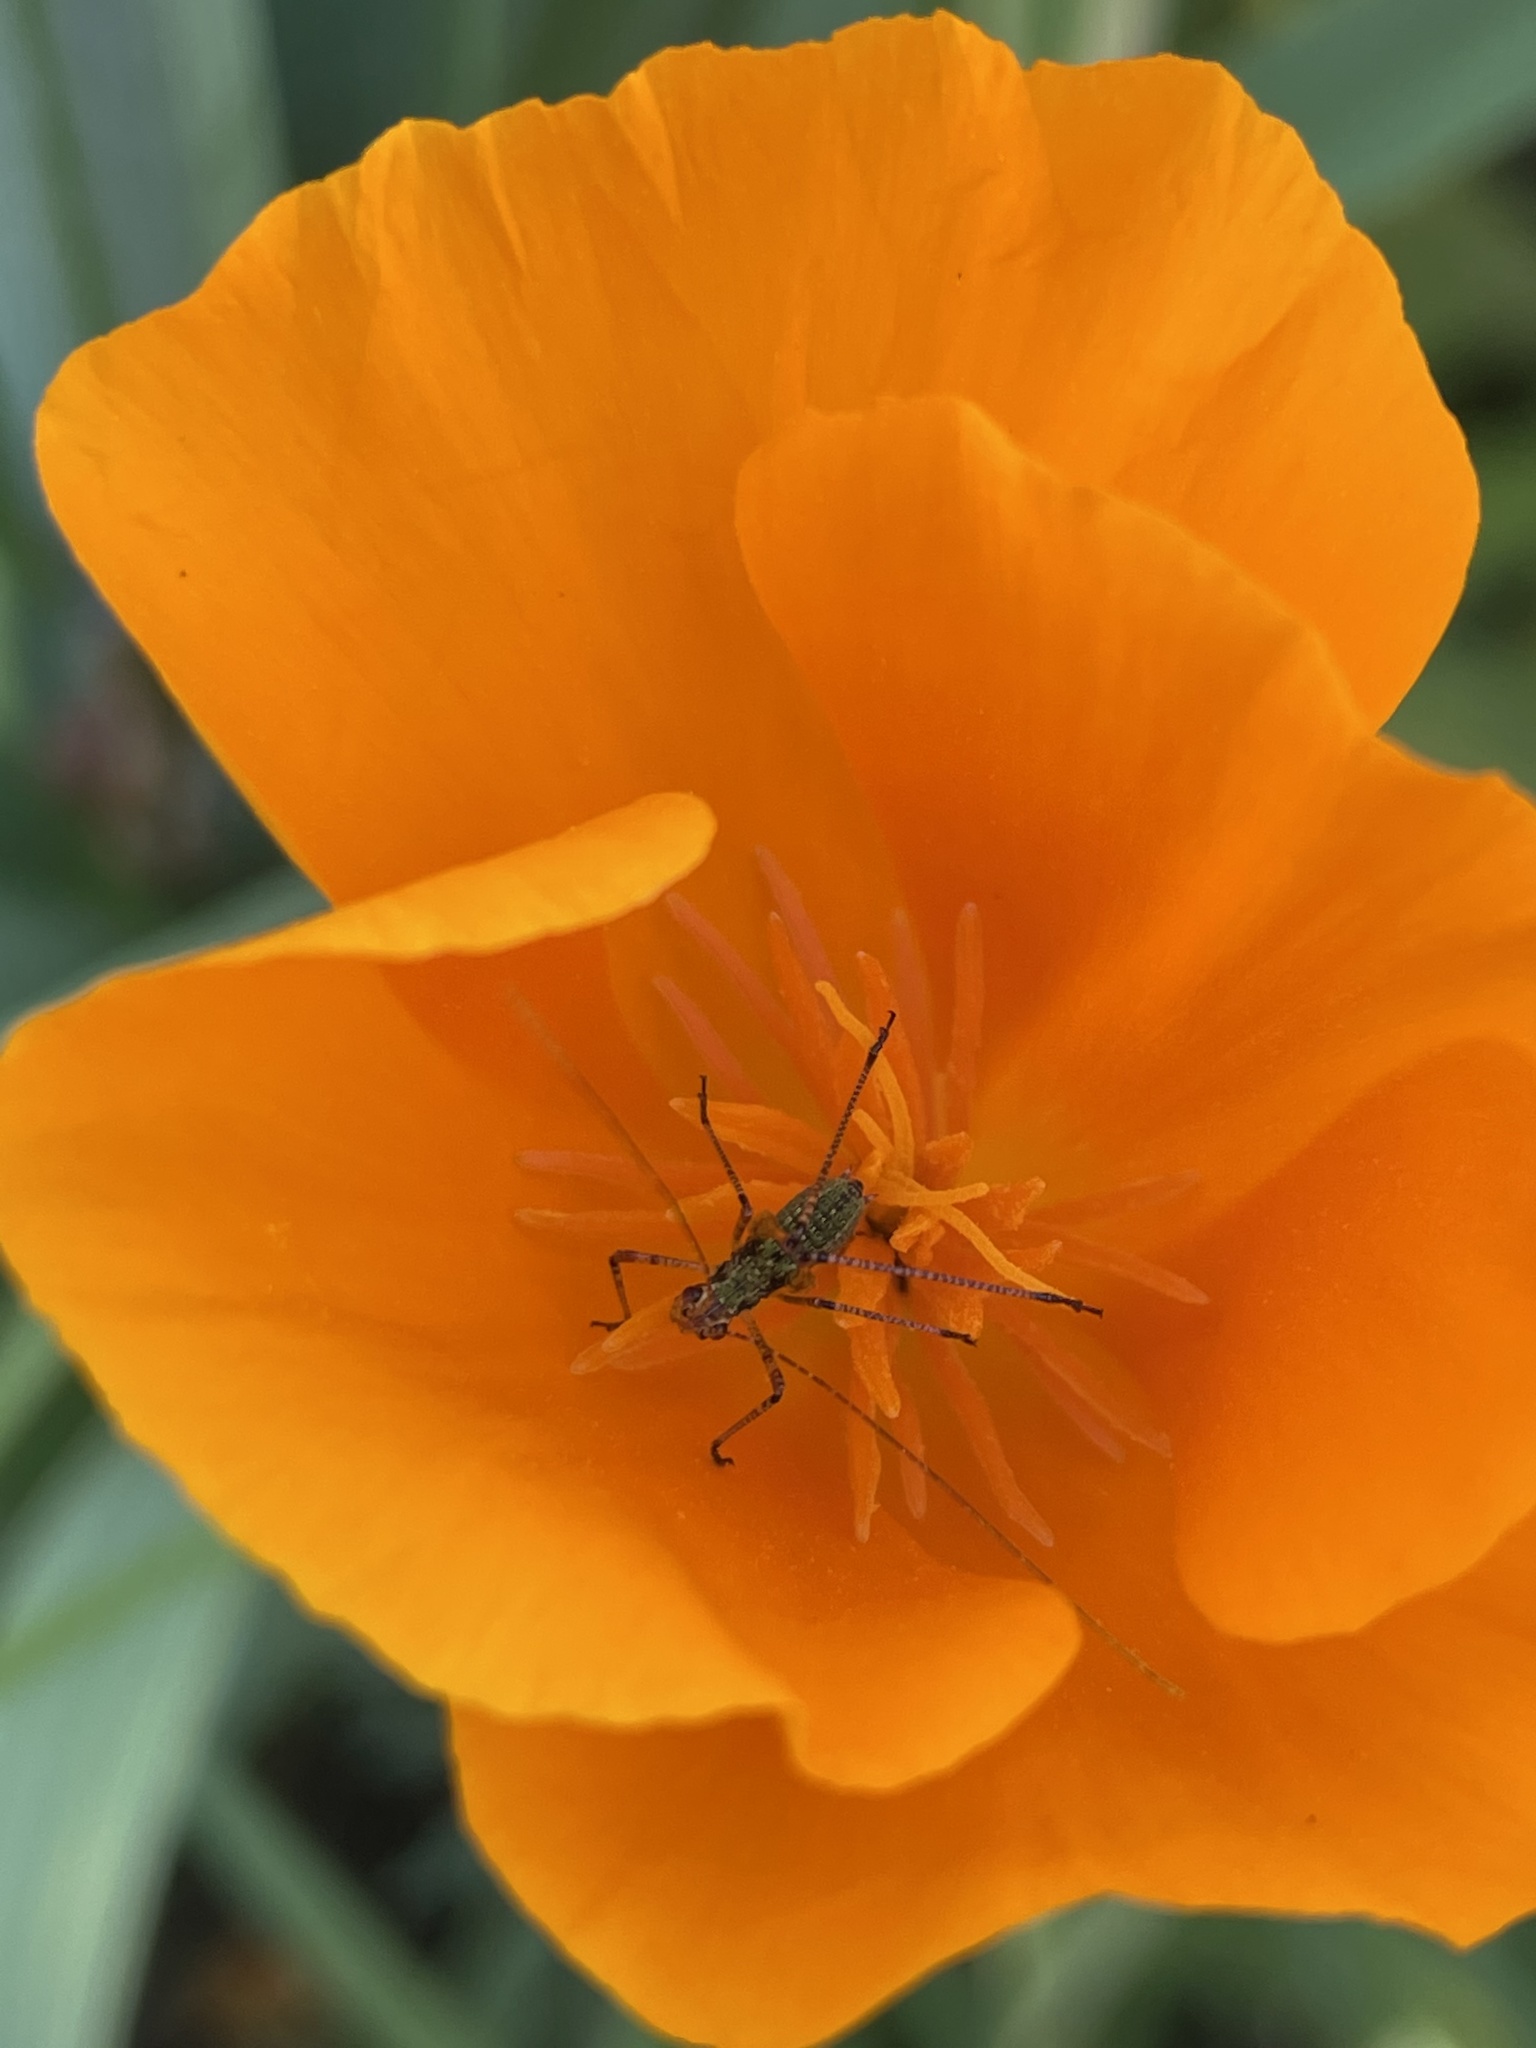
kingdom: Animalia
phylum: Arthropoda
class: Insecta
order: Orthoptera
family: Tettigoniidae
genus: Phaneroptera
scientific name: Phaneroptera nana
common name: Southern sickle bush-cricket
